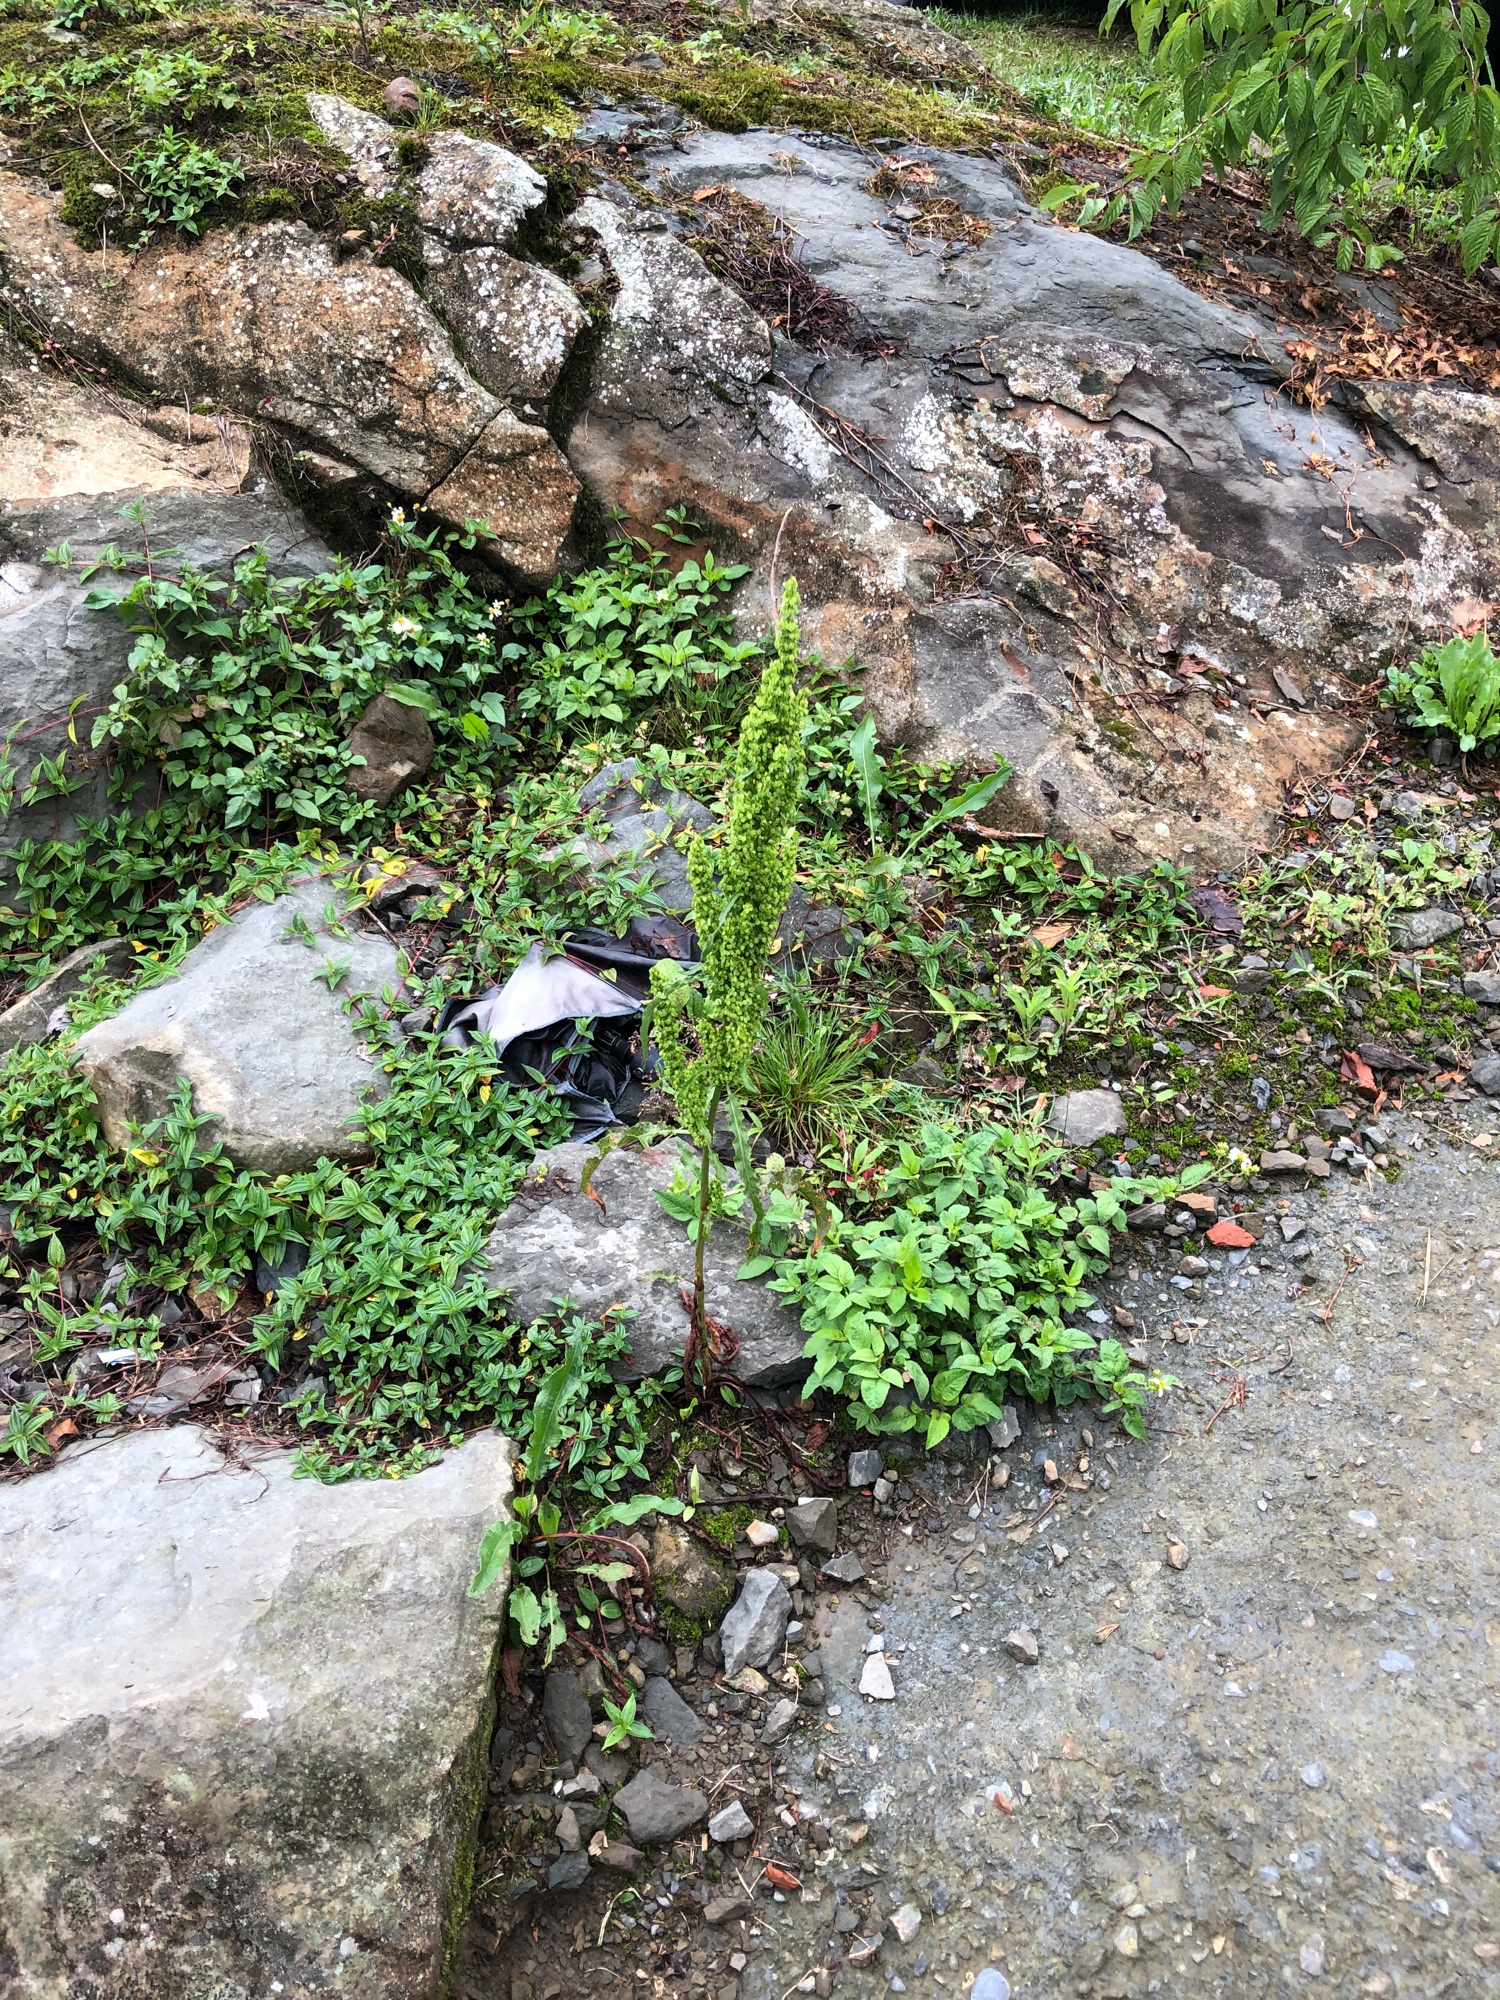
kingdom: Plantae
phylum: Tracheophyta
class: Magnoliopsida
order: Caryophyllales
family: Polygonaceae
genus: Rumex
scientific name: Rumex japonicus
